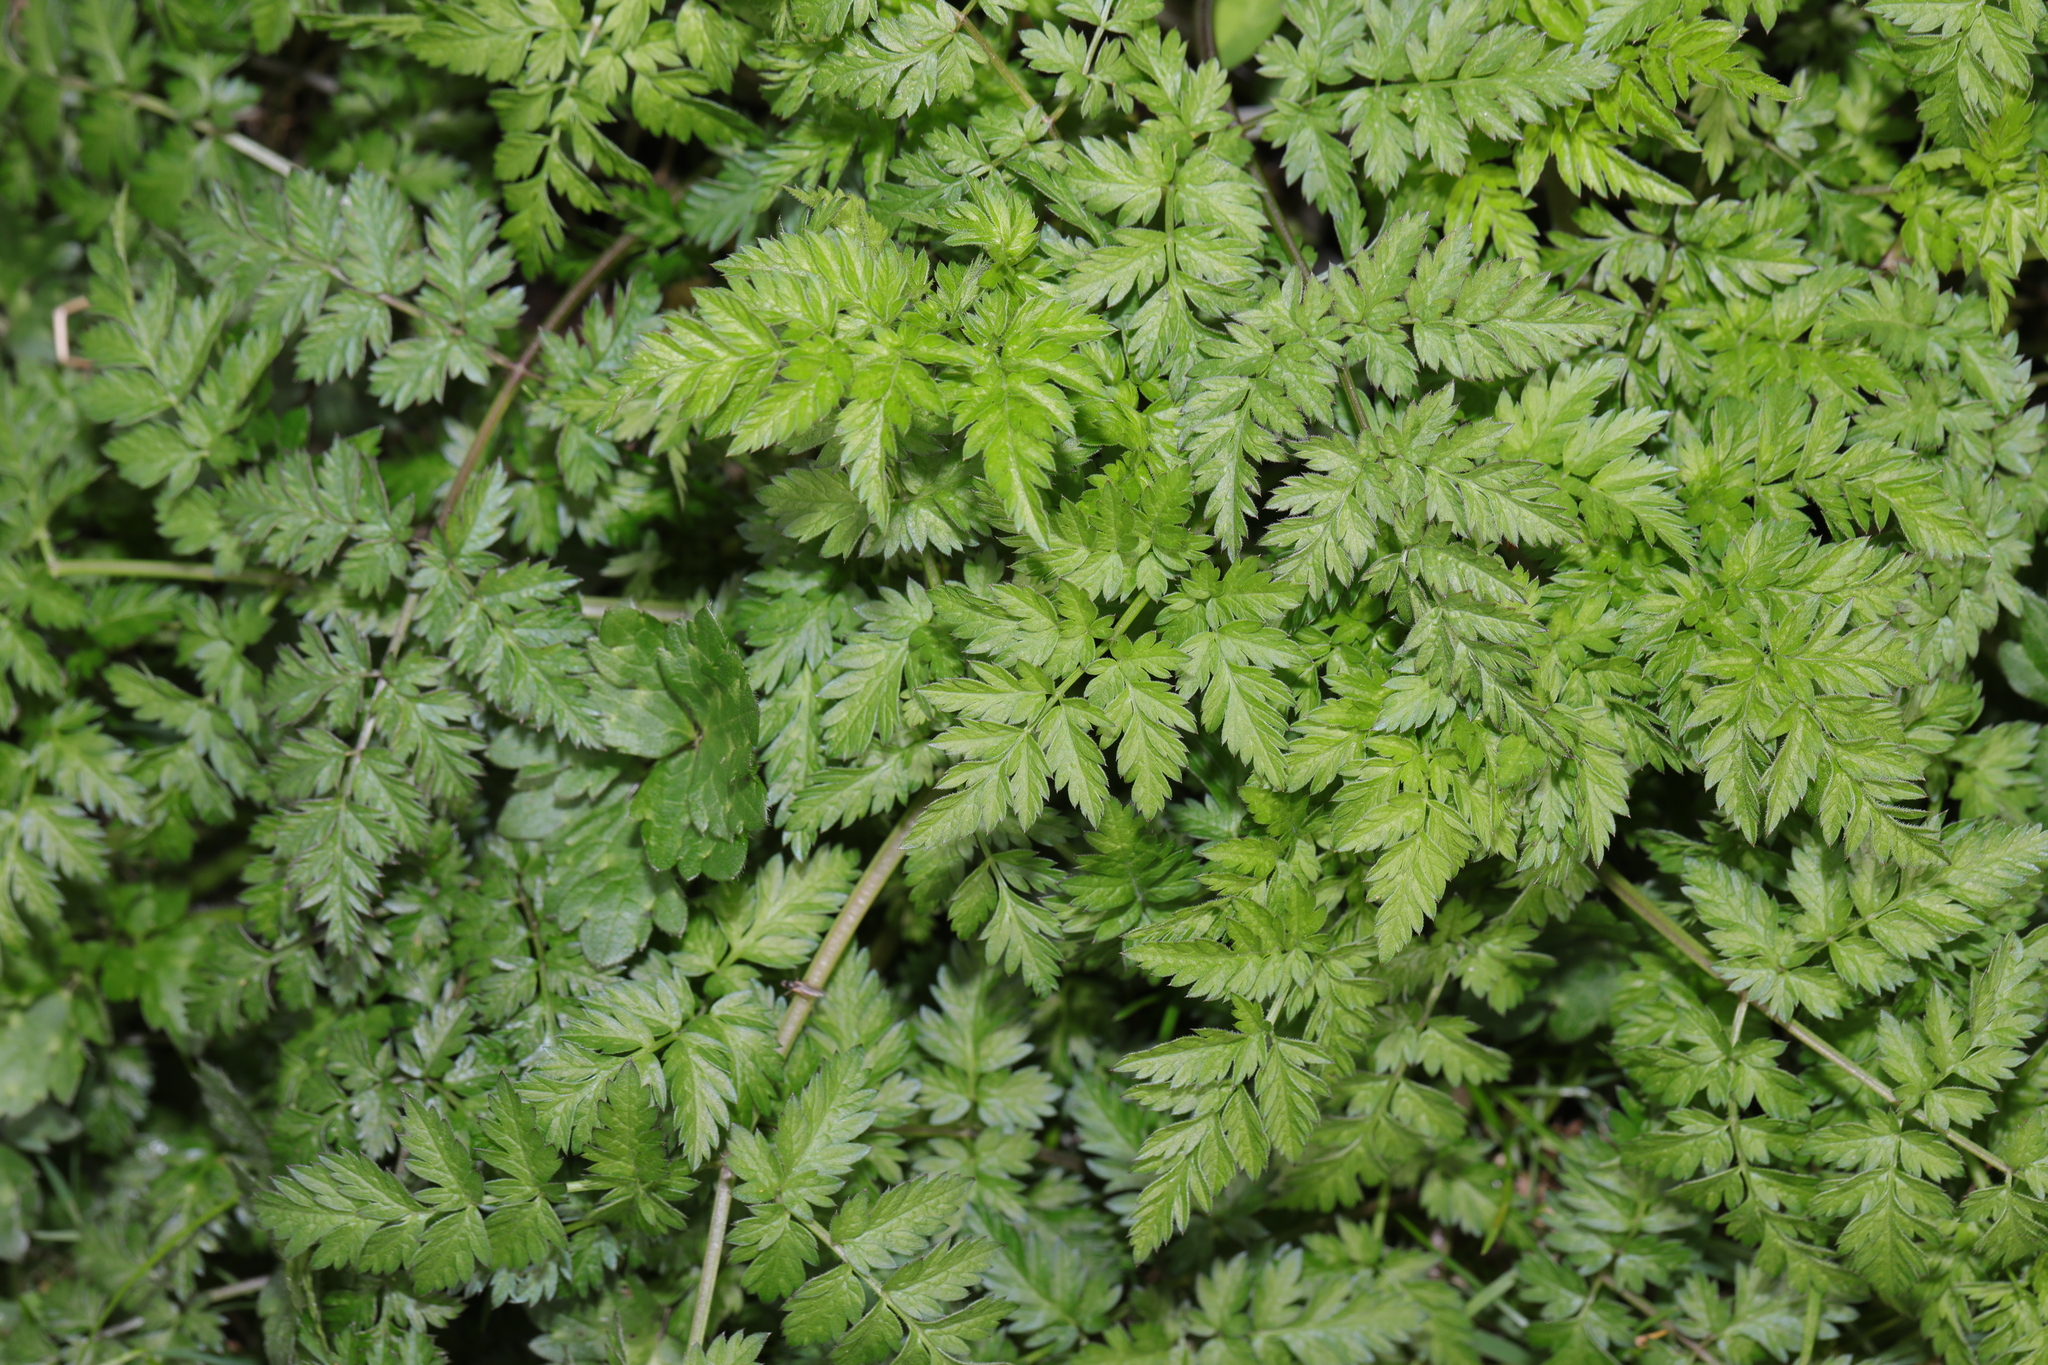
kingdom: Plantae
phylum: Tracheophyta
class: Magnoliopsida
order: Apiales
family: Apiaceae
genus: Anthriscus
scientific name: Anthriscus sylvestris
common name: Cow parsley
